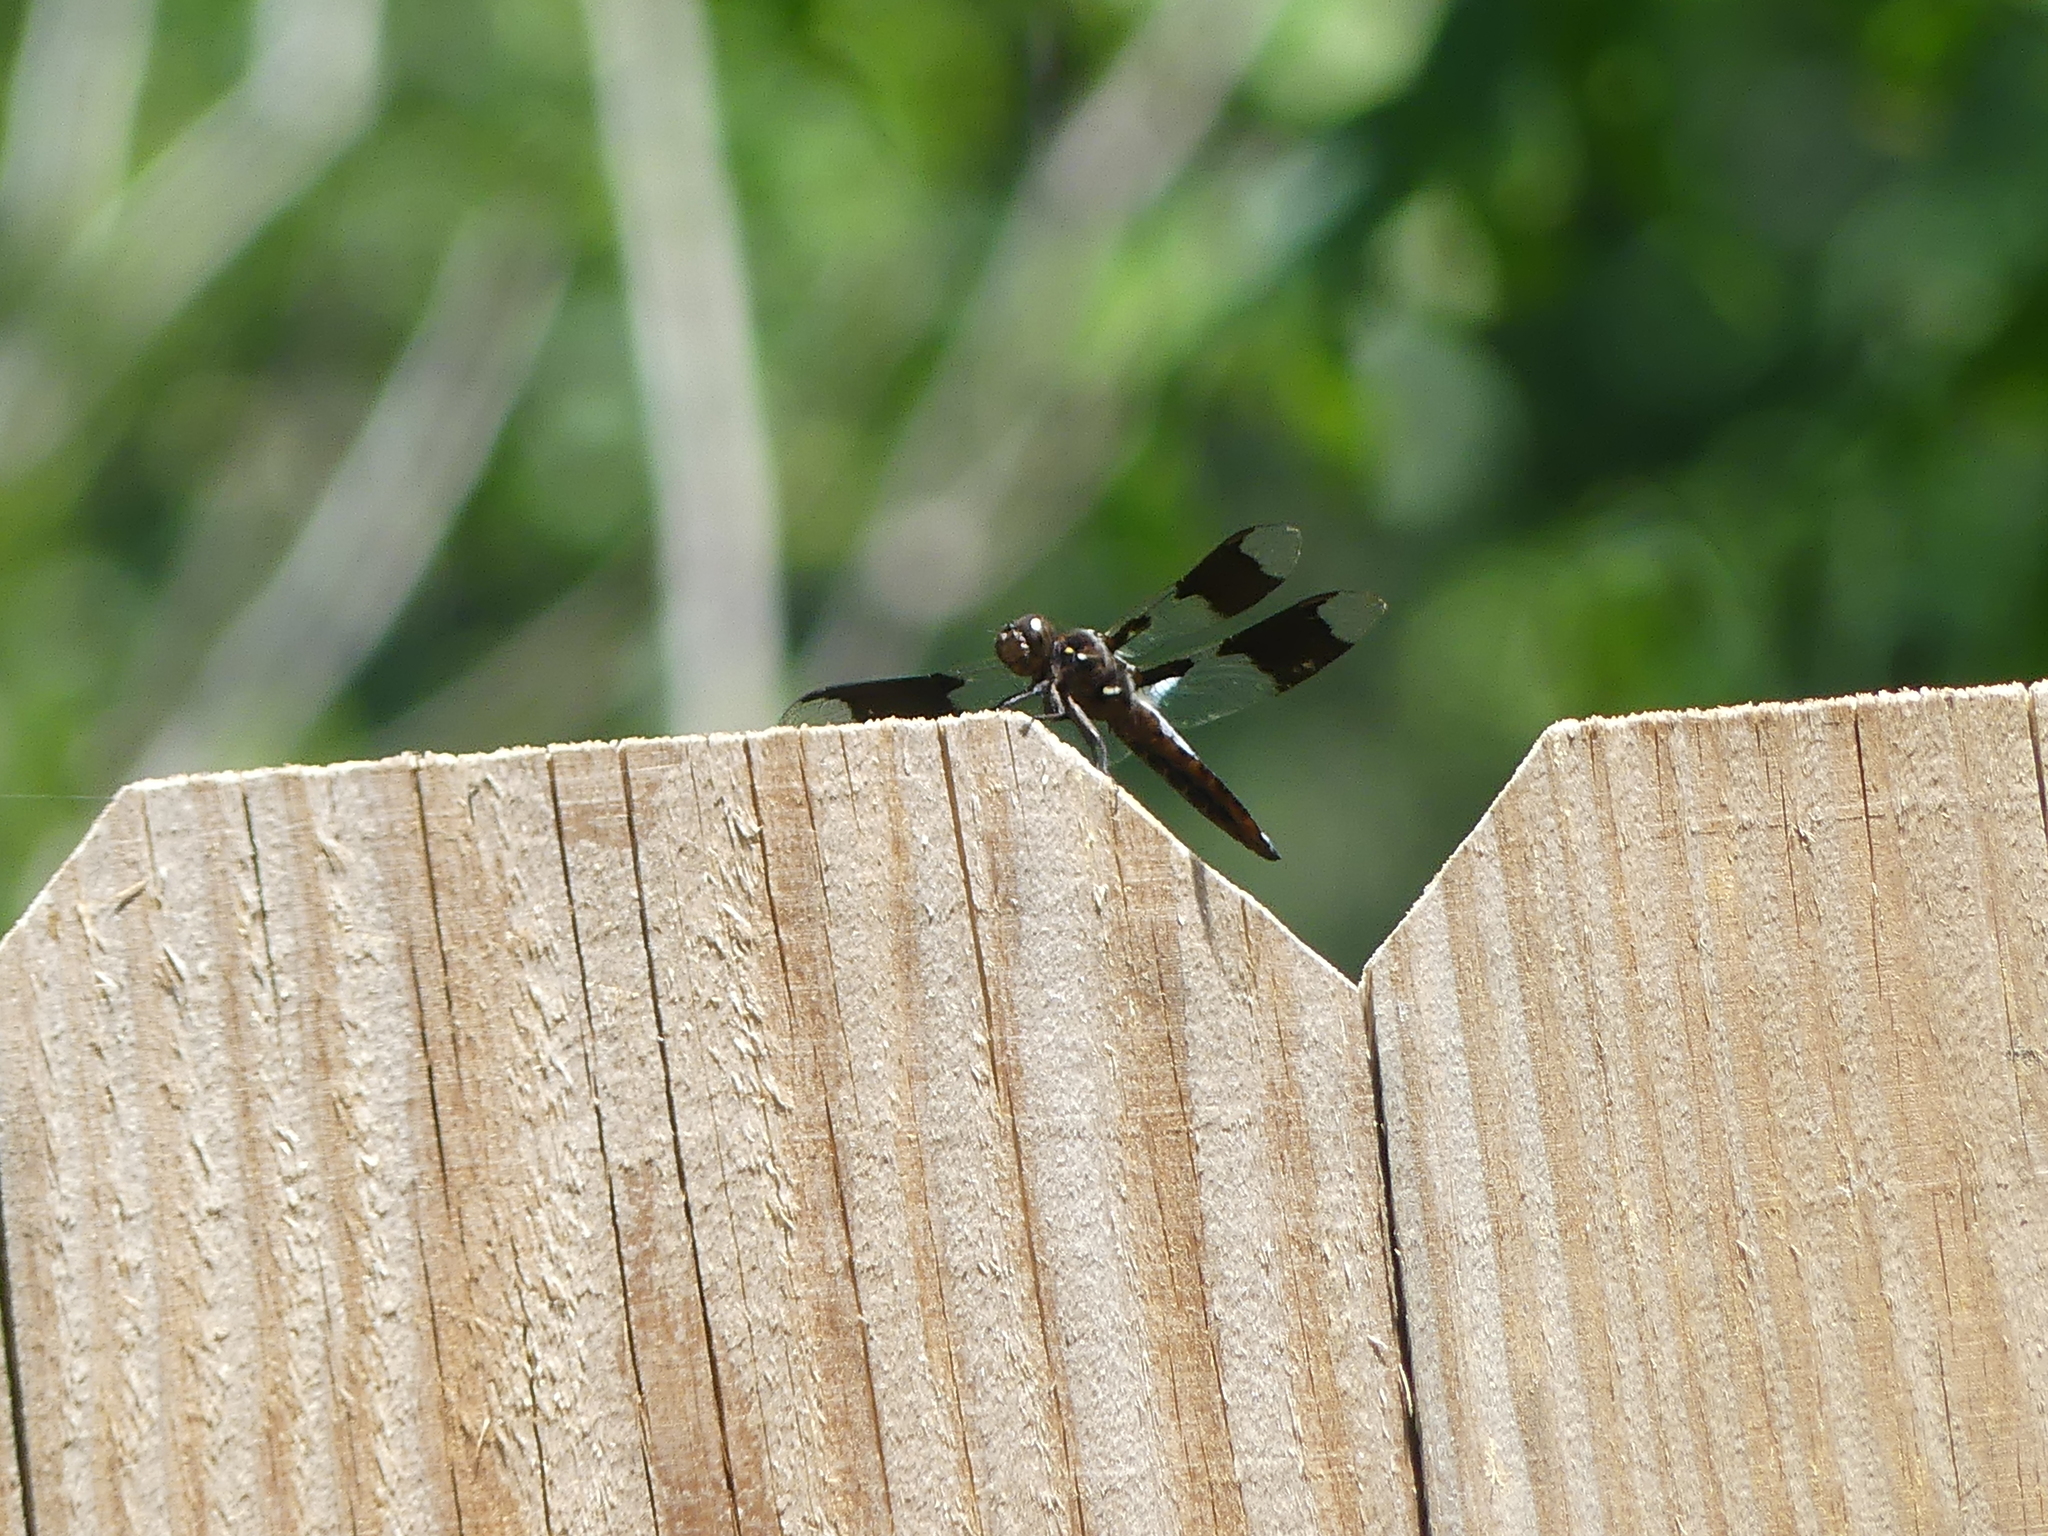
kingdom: Animalia
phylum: Arthropoda
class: Insecta
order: Odonata
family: Libellulidae
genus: Plathemis
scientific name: Plathemis lydia
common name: Common whitetail
